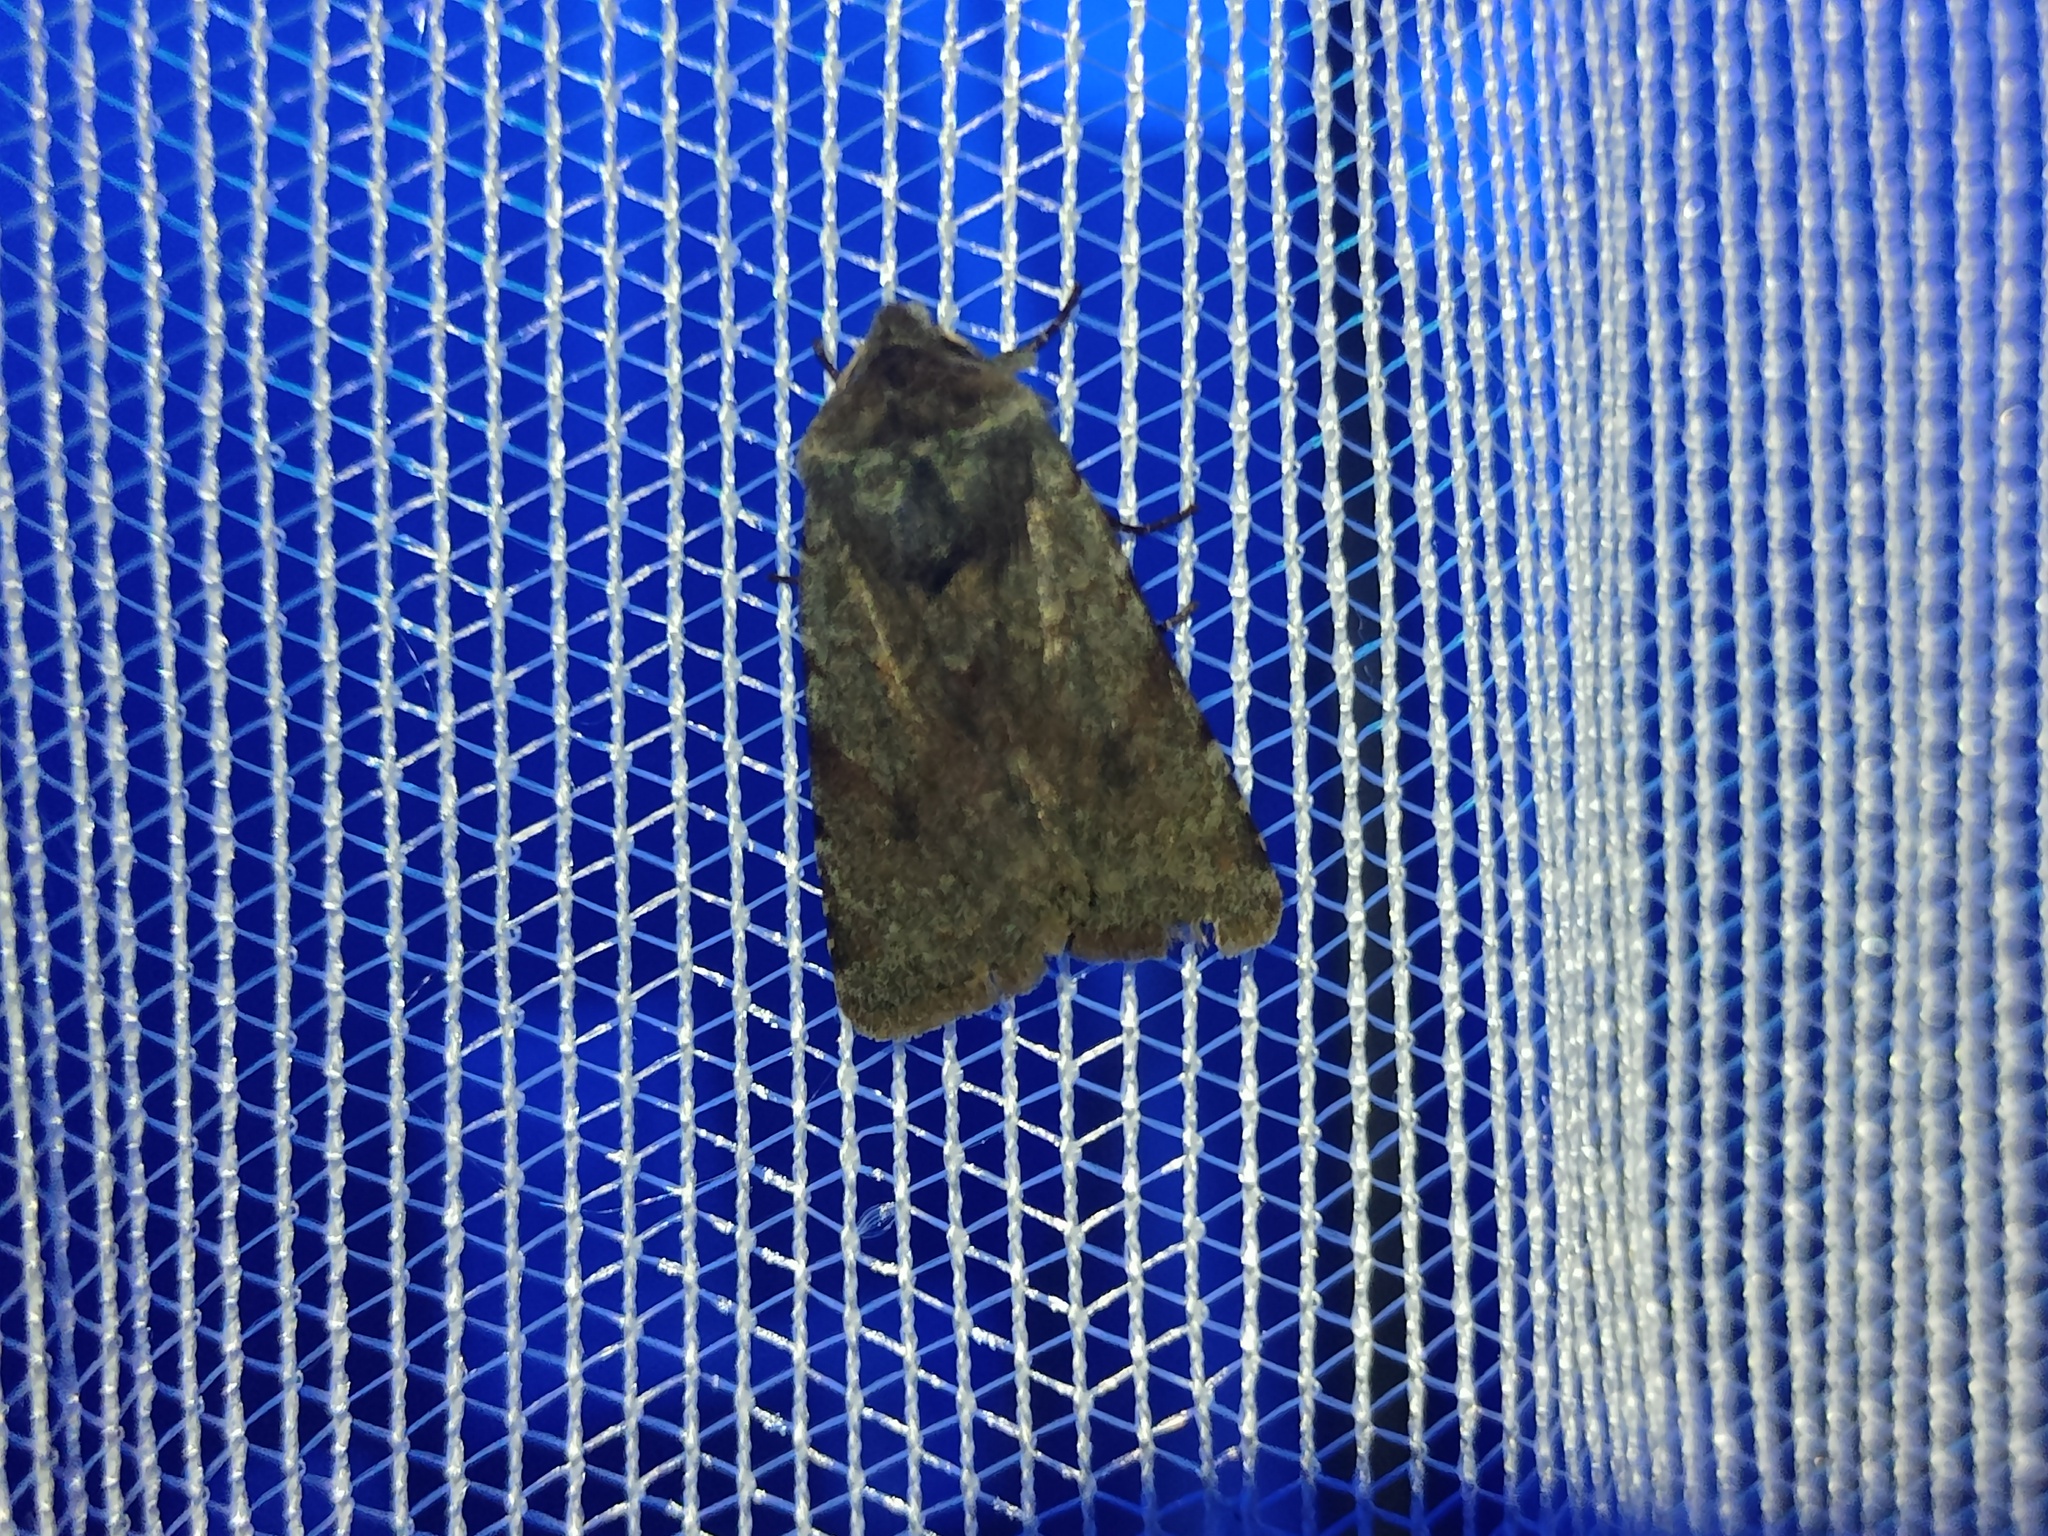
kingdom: Animalia
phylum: Arthropoda
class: Insecta
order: Lepidoptera
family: Noctuidae
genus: Cerastis
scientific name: Cerastis rubricosa
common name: Red chestnut
